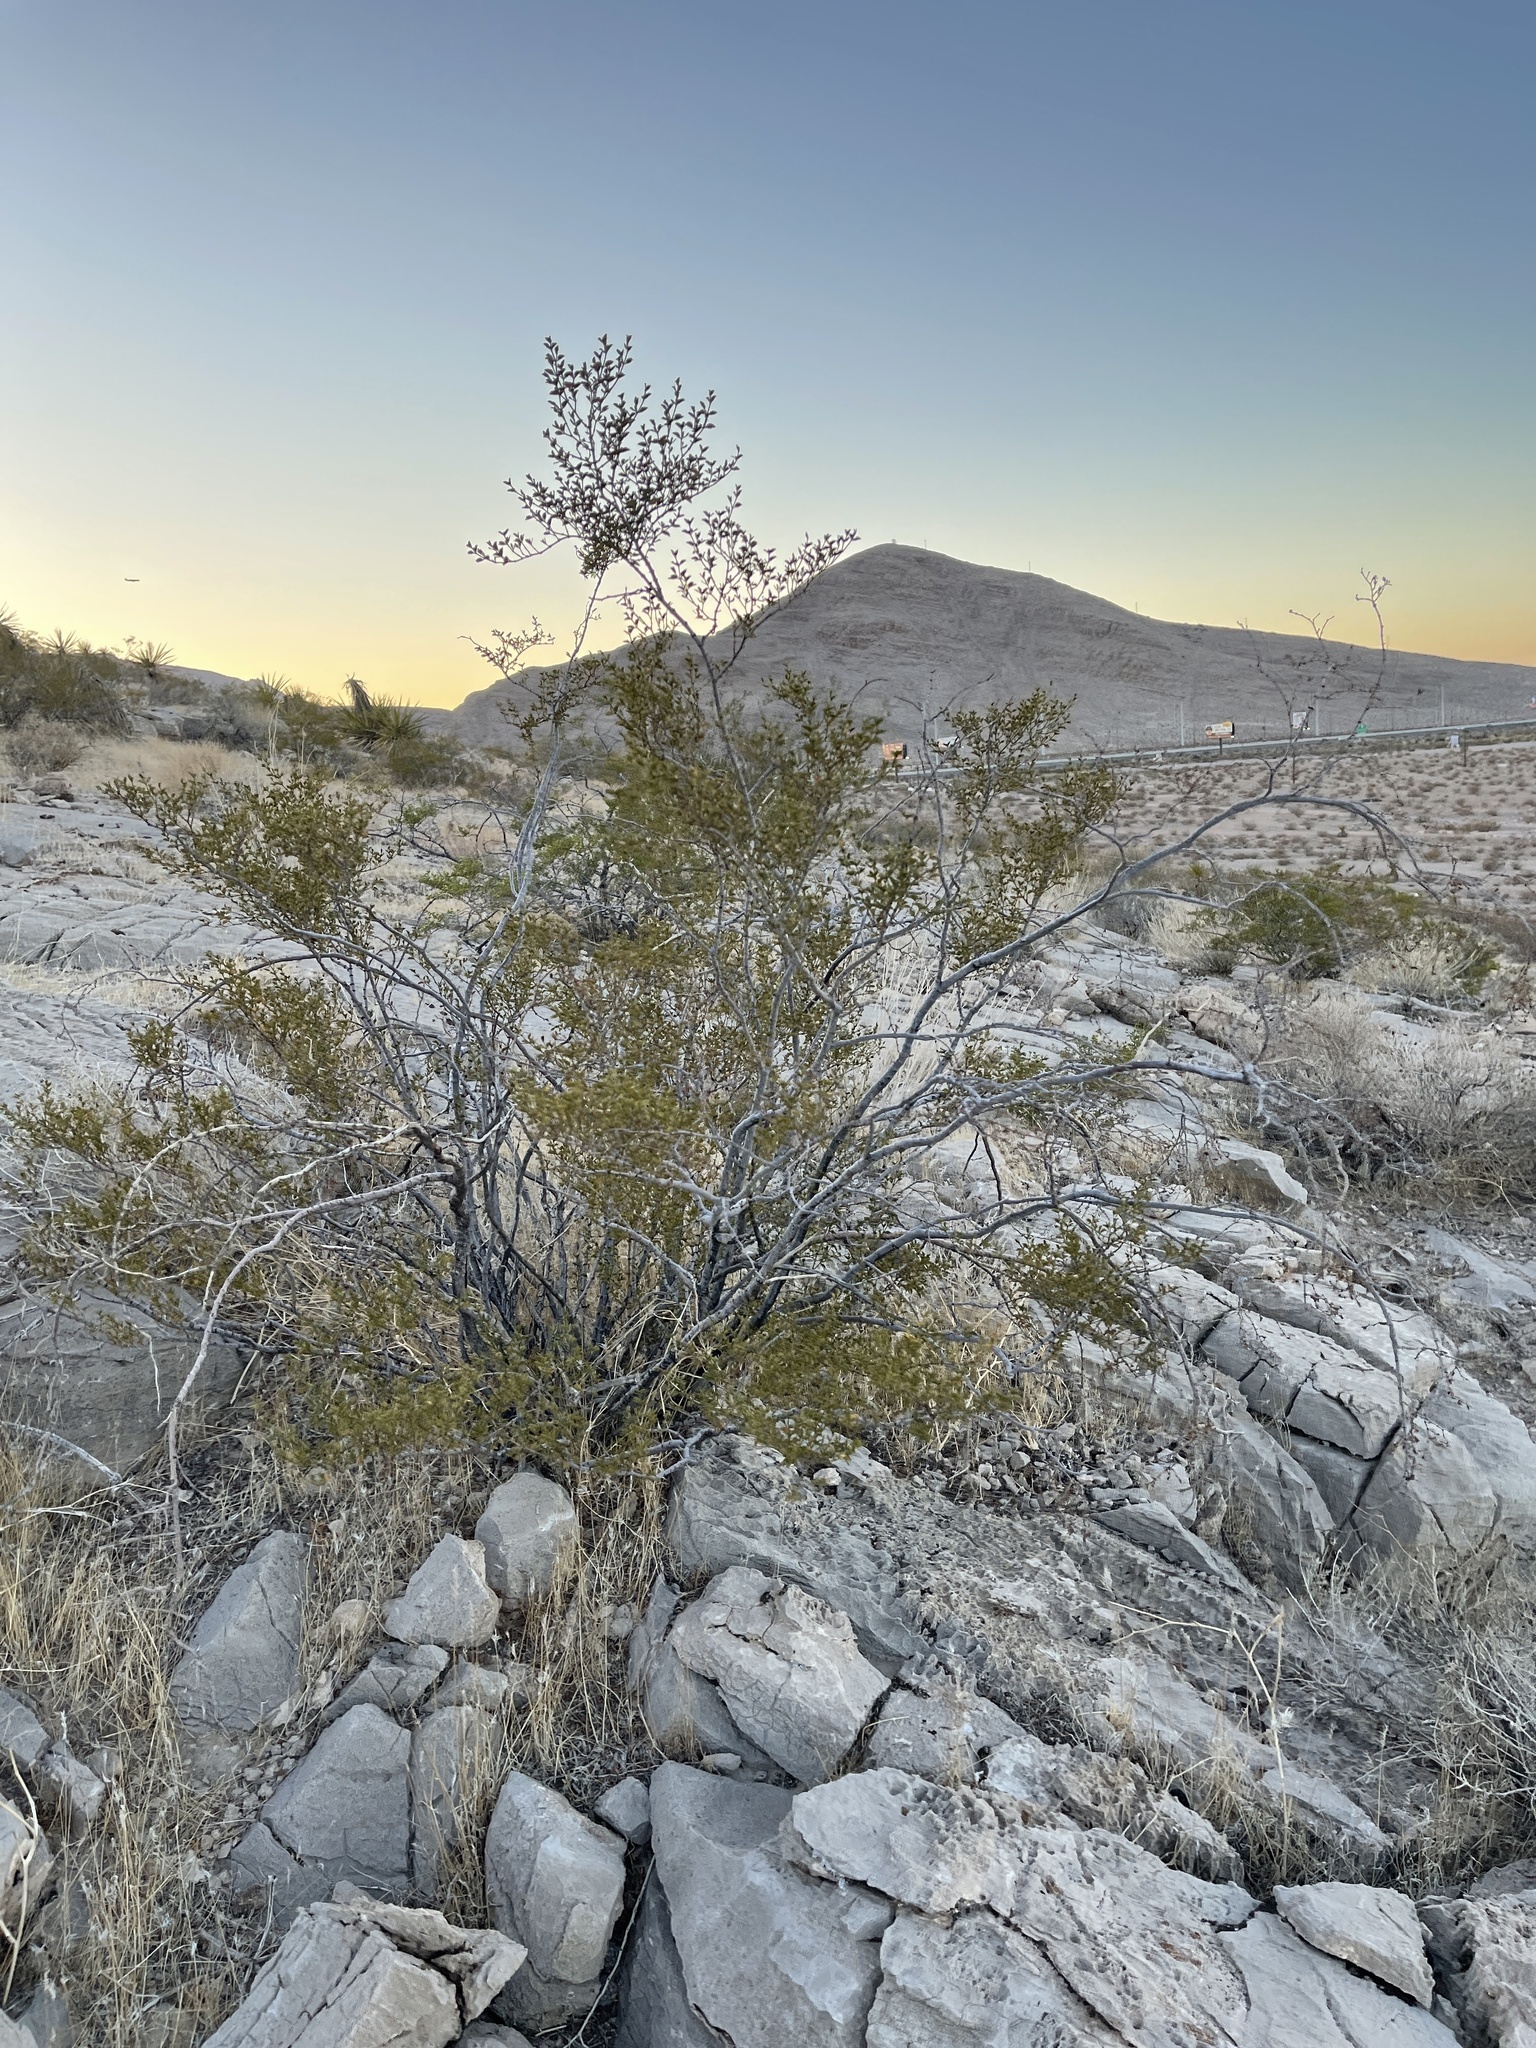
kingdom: Plantae
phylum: Tracheophyta
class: Magnoliopsida
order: Zygophyllales
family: Zygophyllaceae
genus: Larrea
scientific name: Larrea tridentata
